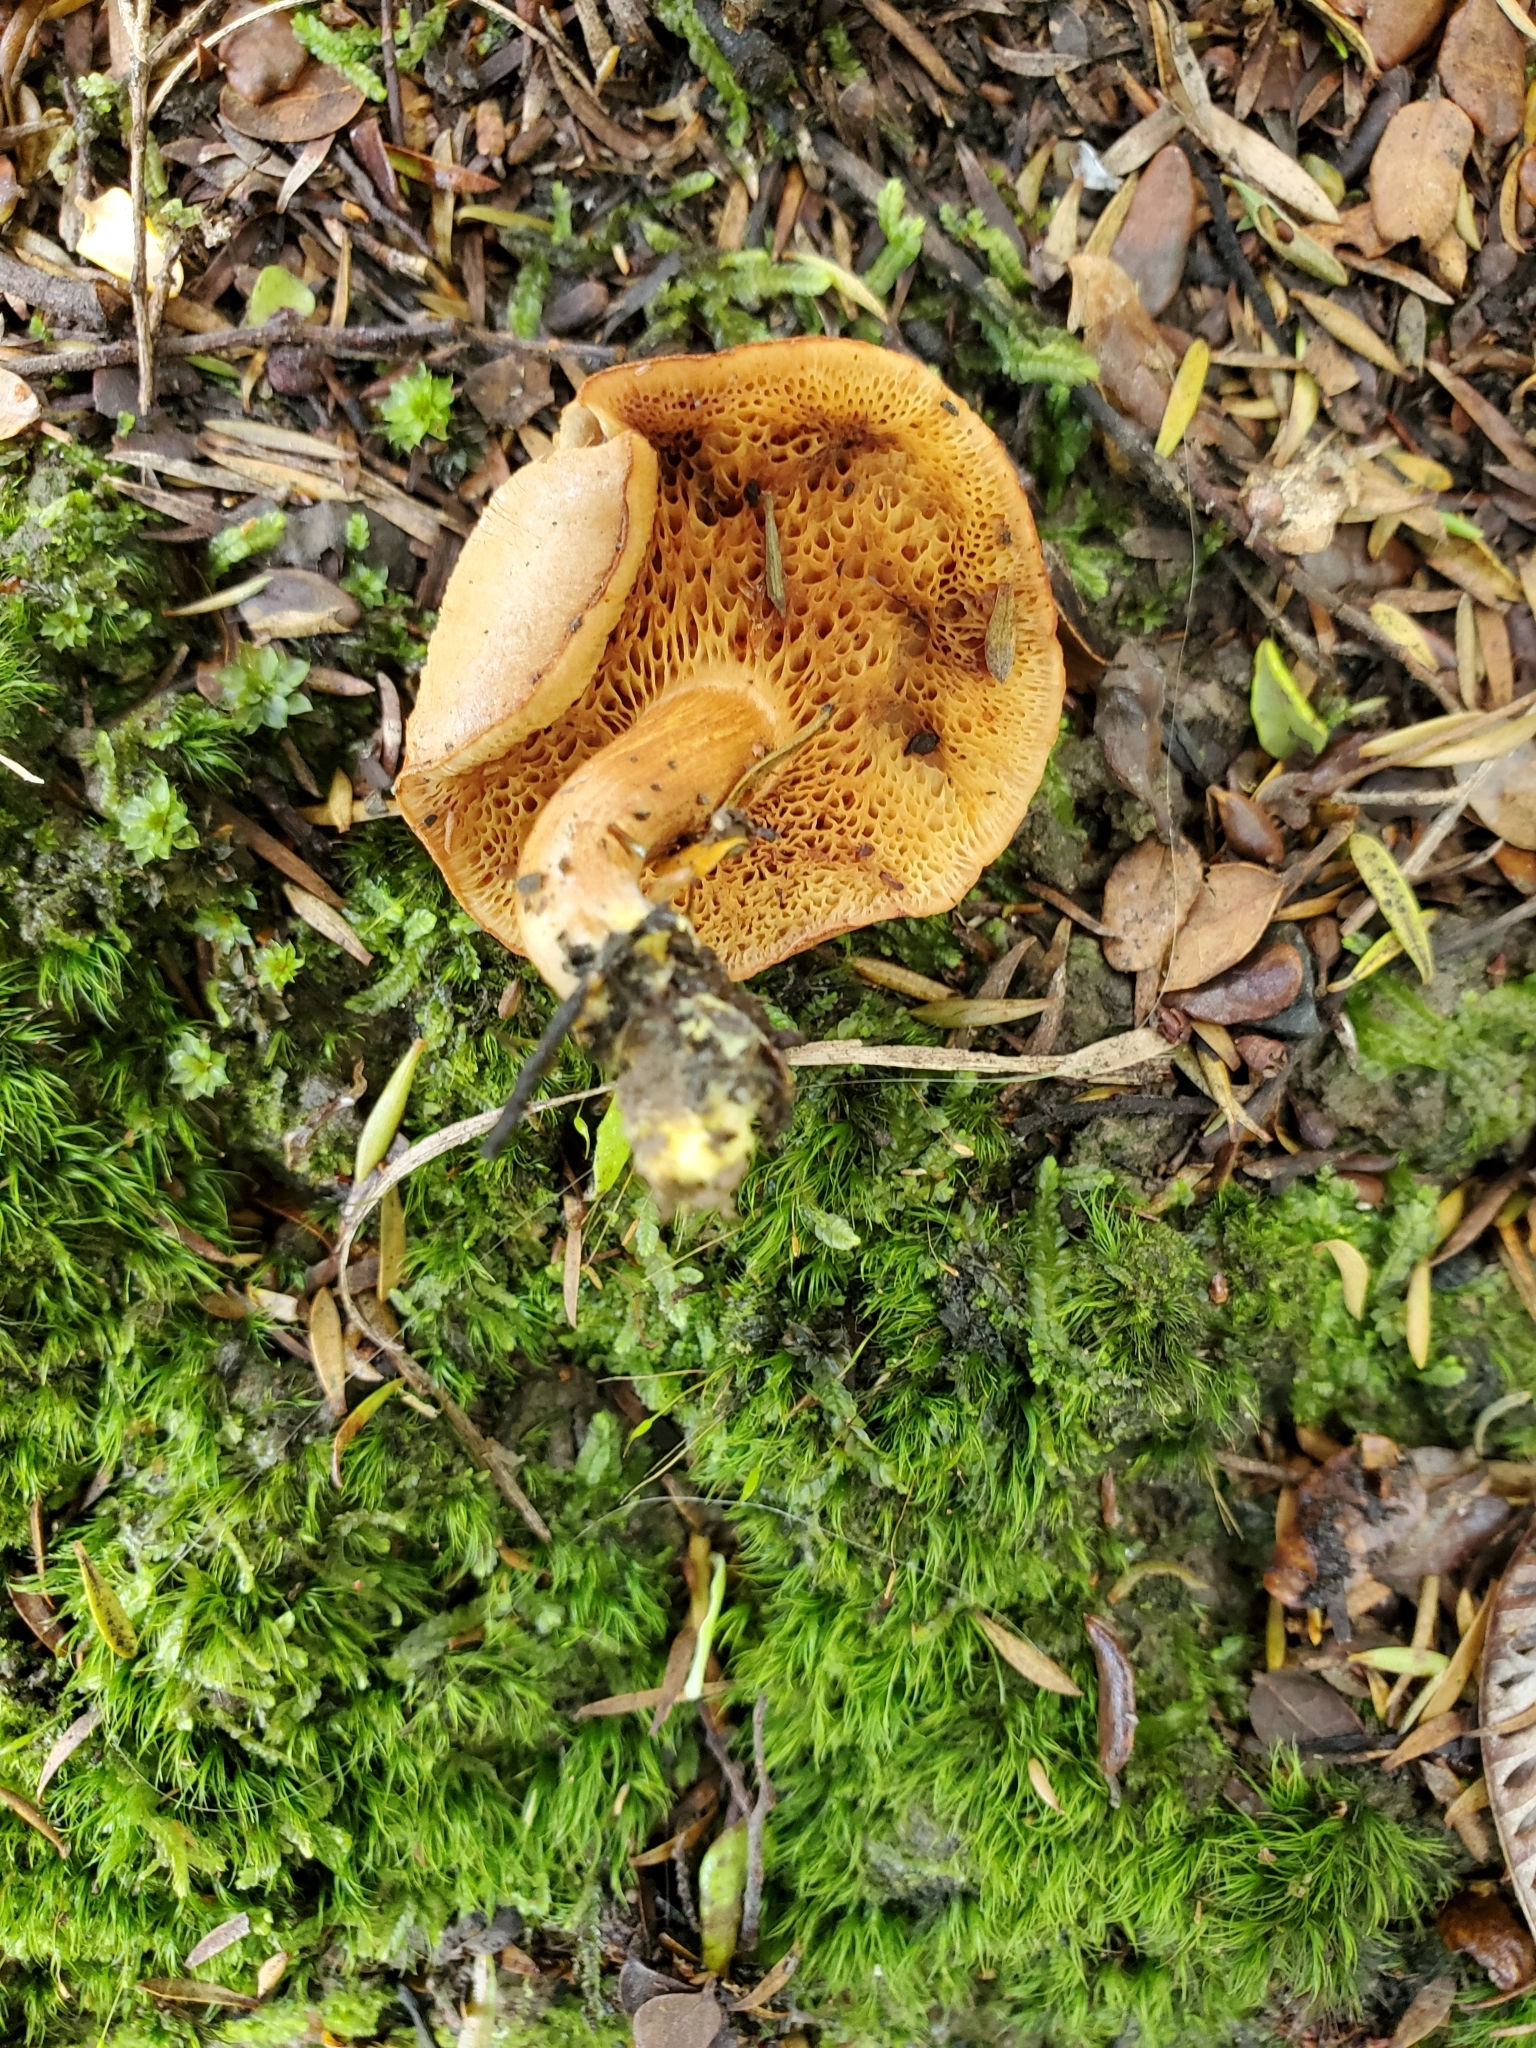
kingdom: Fungi
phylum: Basidiomycota
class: Agaricomycetes
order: Boletales
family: Boletaceae
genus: Chalciporus
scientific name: Chalciporus piperatus
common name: Peppery bolete
